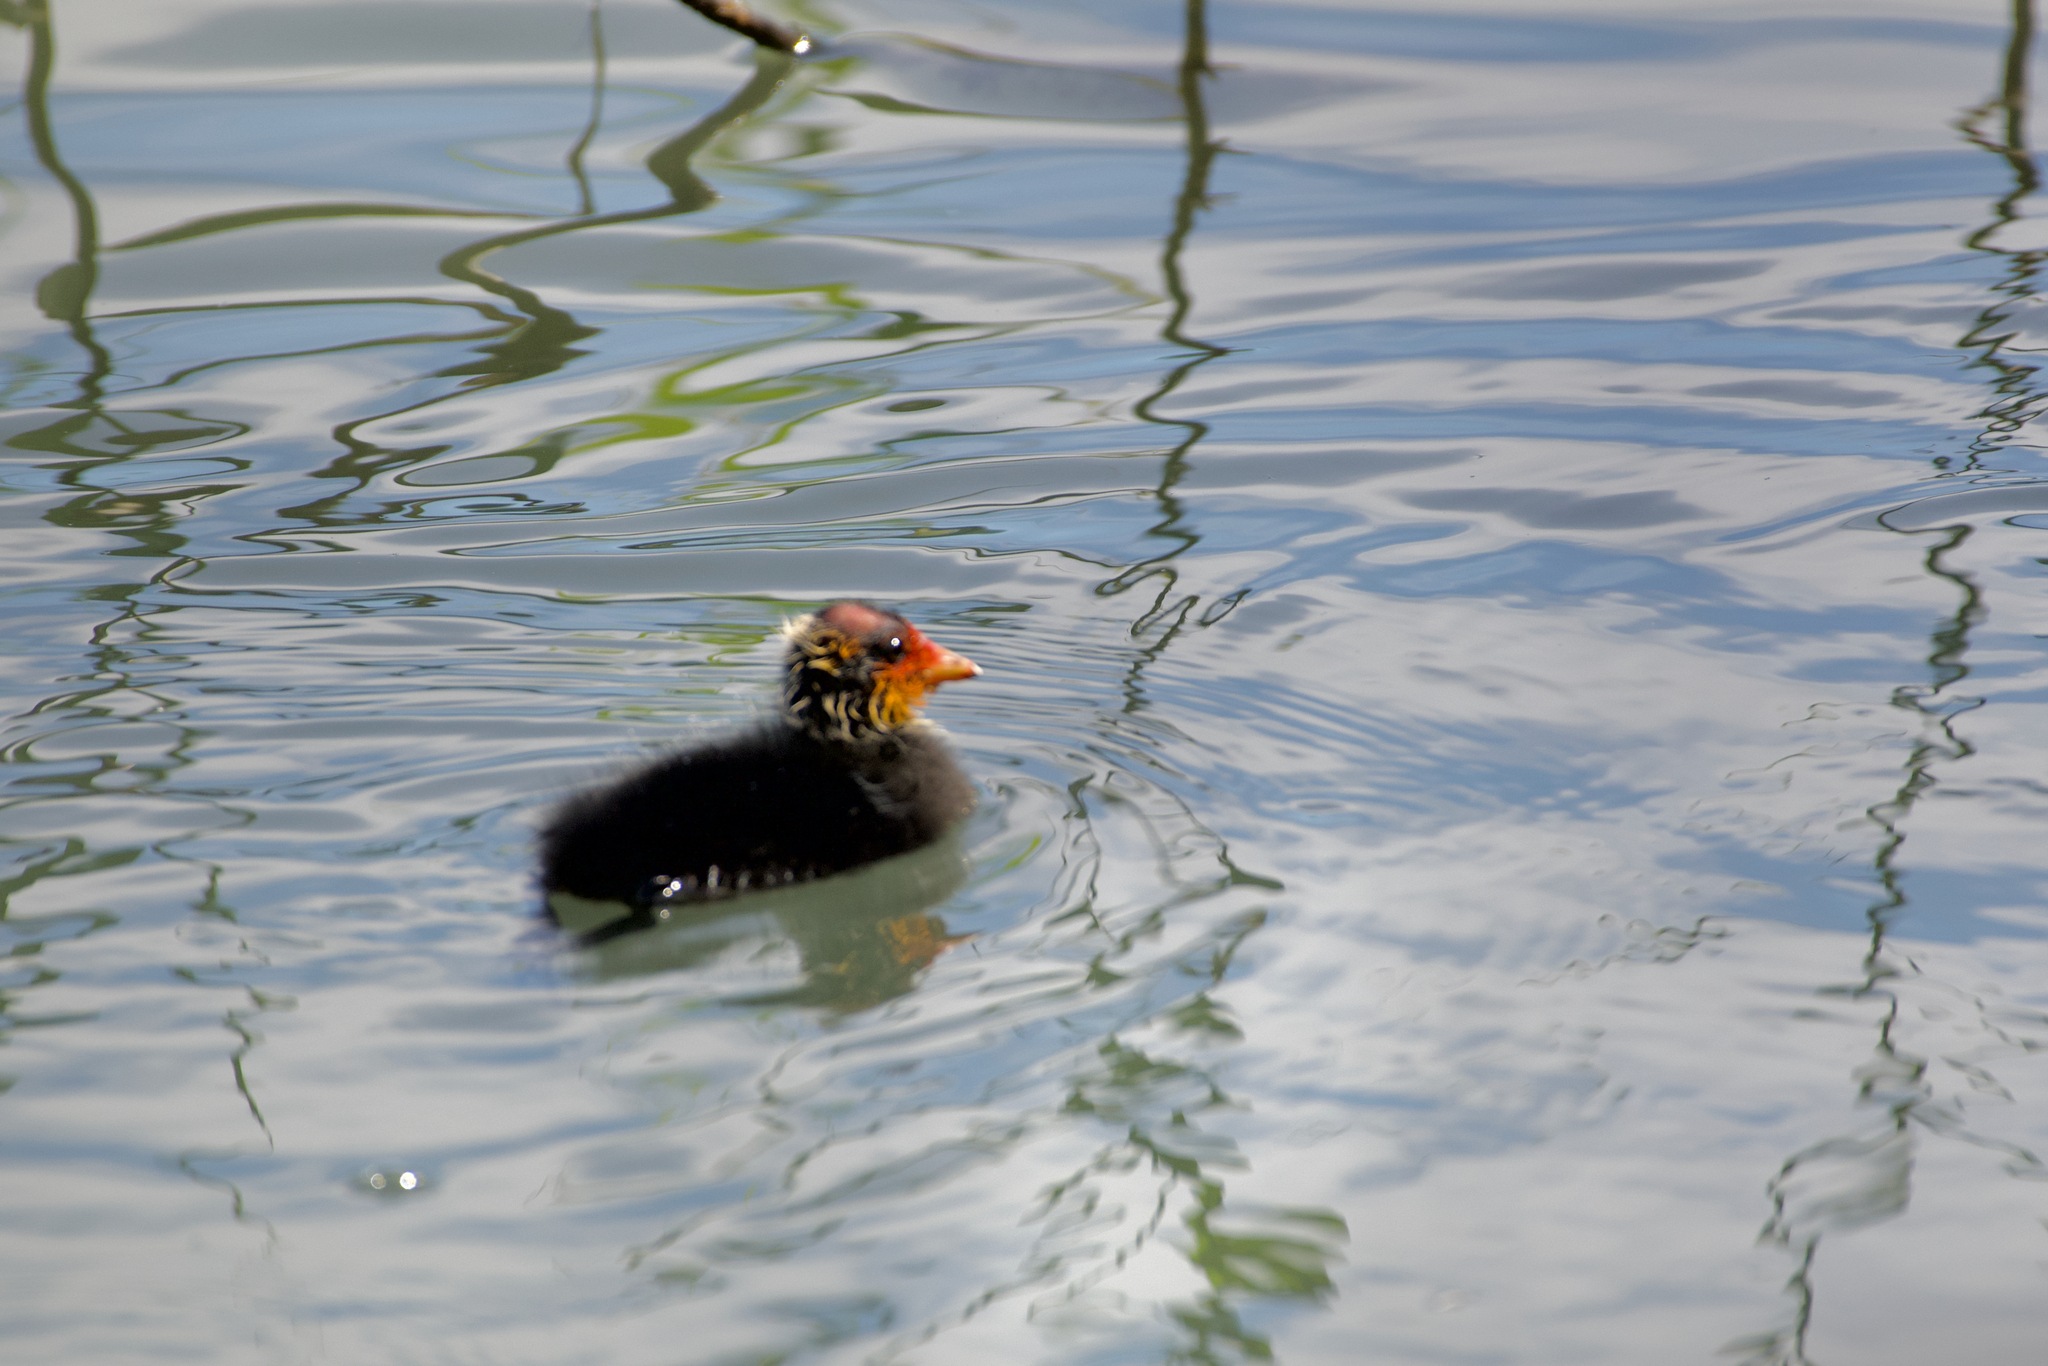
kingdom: Animalia
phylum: Chordata
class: Aves
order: Gruiformes
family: Rallidae
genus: Fulica
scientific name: Fulica atra
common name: Eurasian coot
